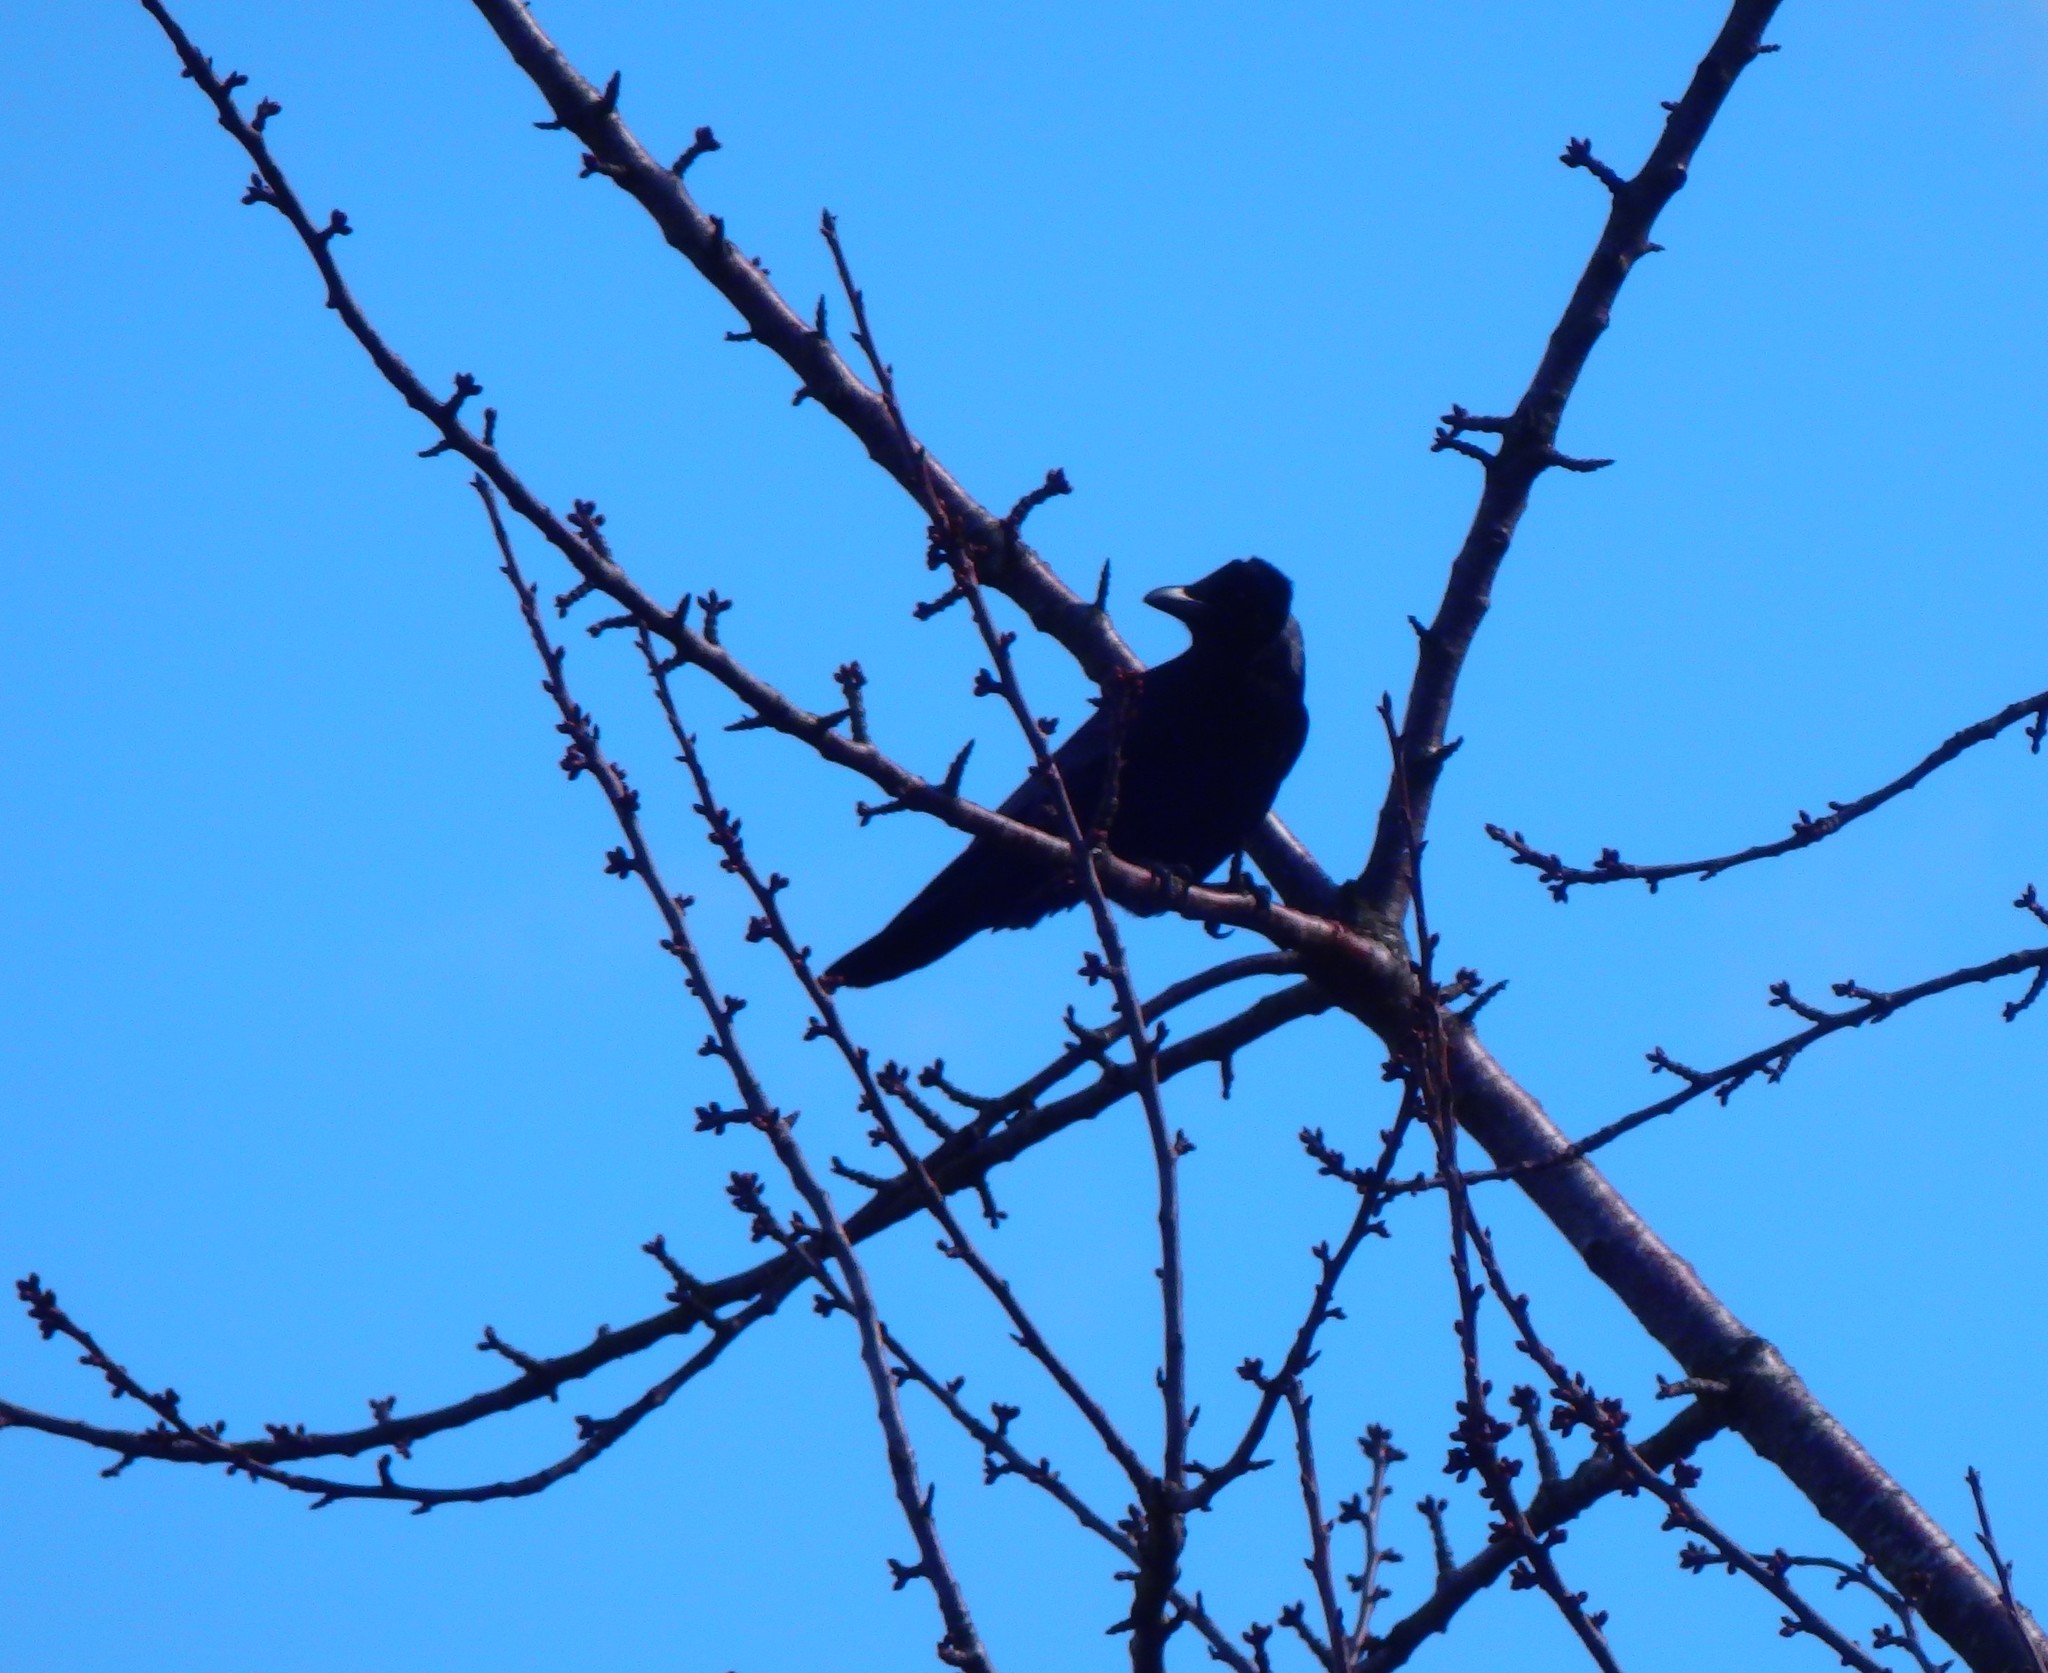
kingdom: Animalia
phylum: Chordata
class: Aves
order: Passeriformes
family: Corvidae
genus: Corvus
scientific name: Corvus corone
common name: Carrion crow
